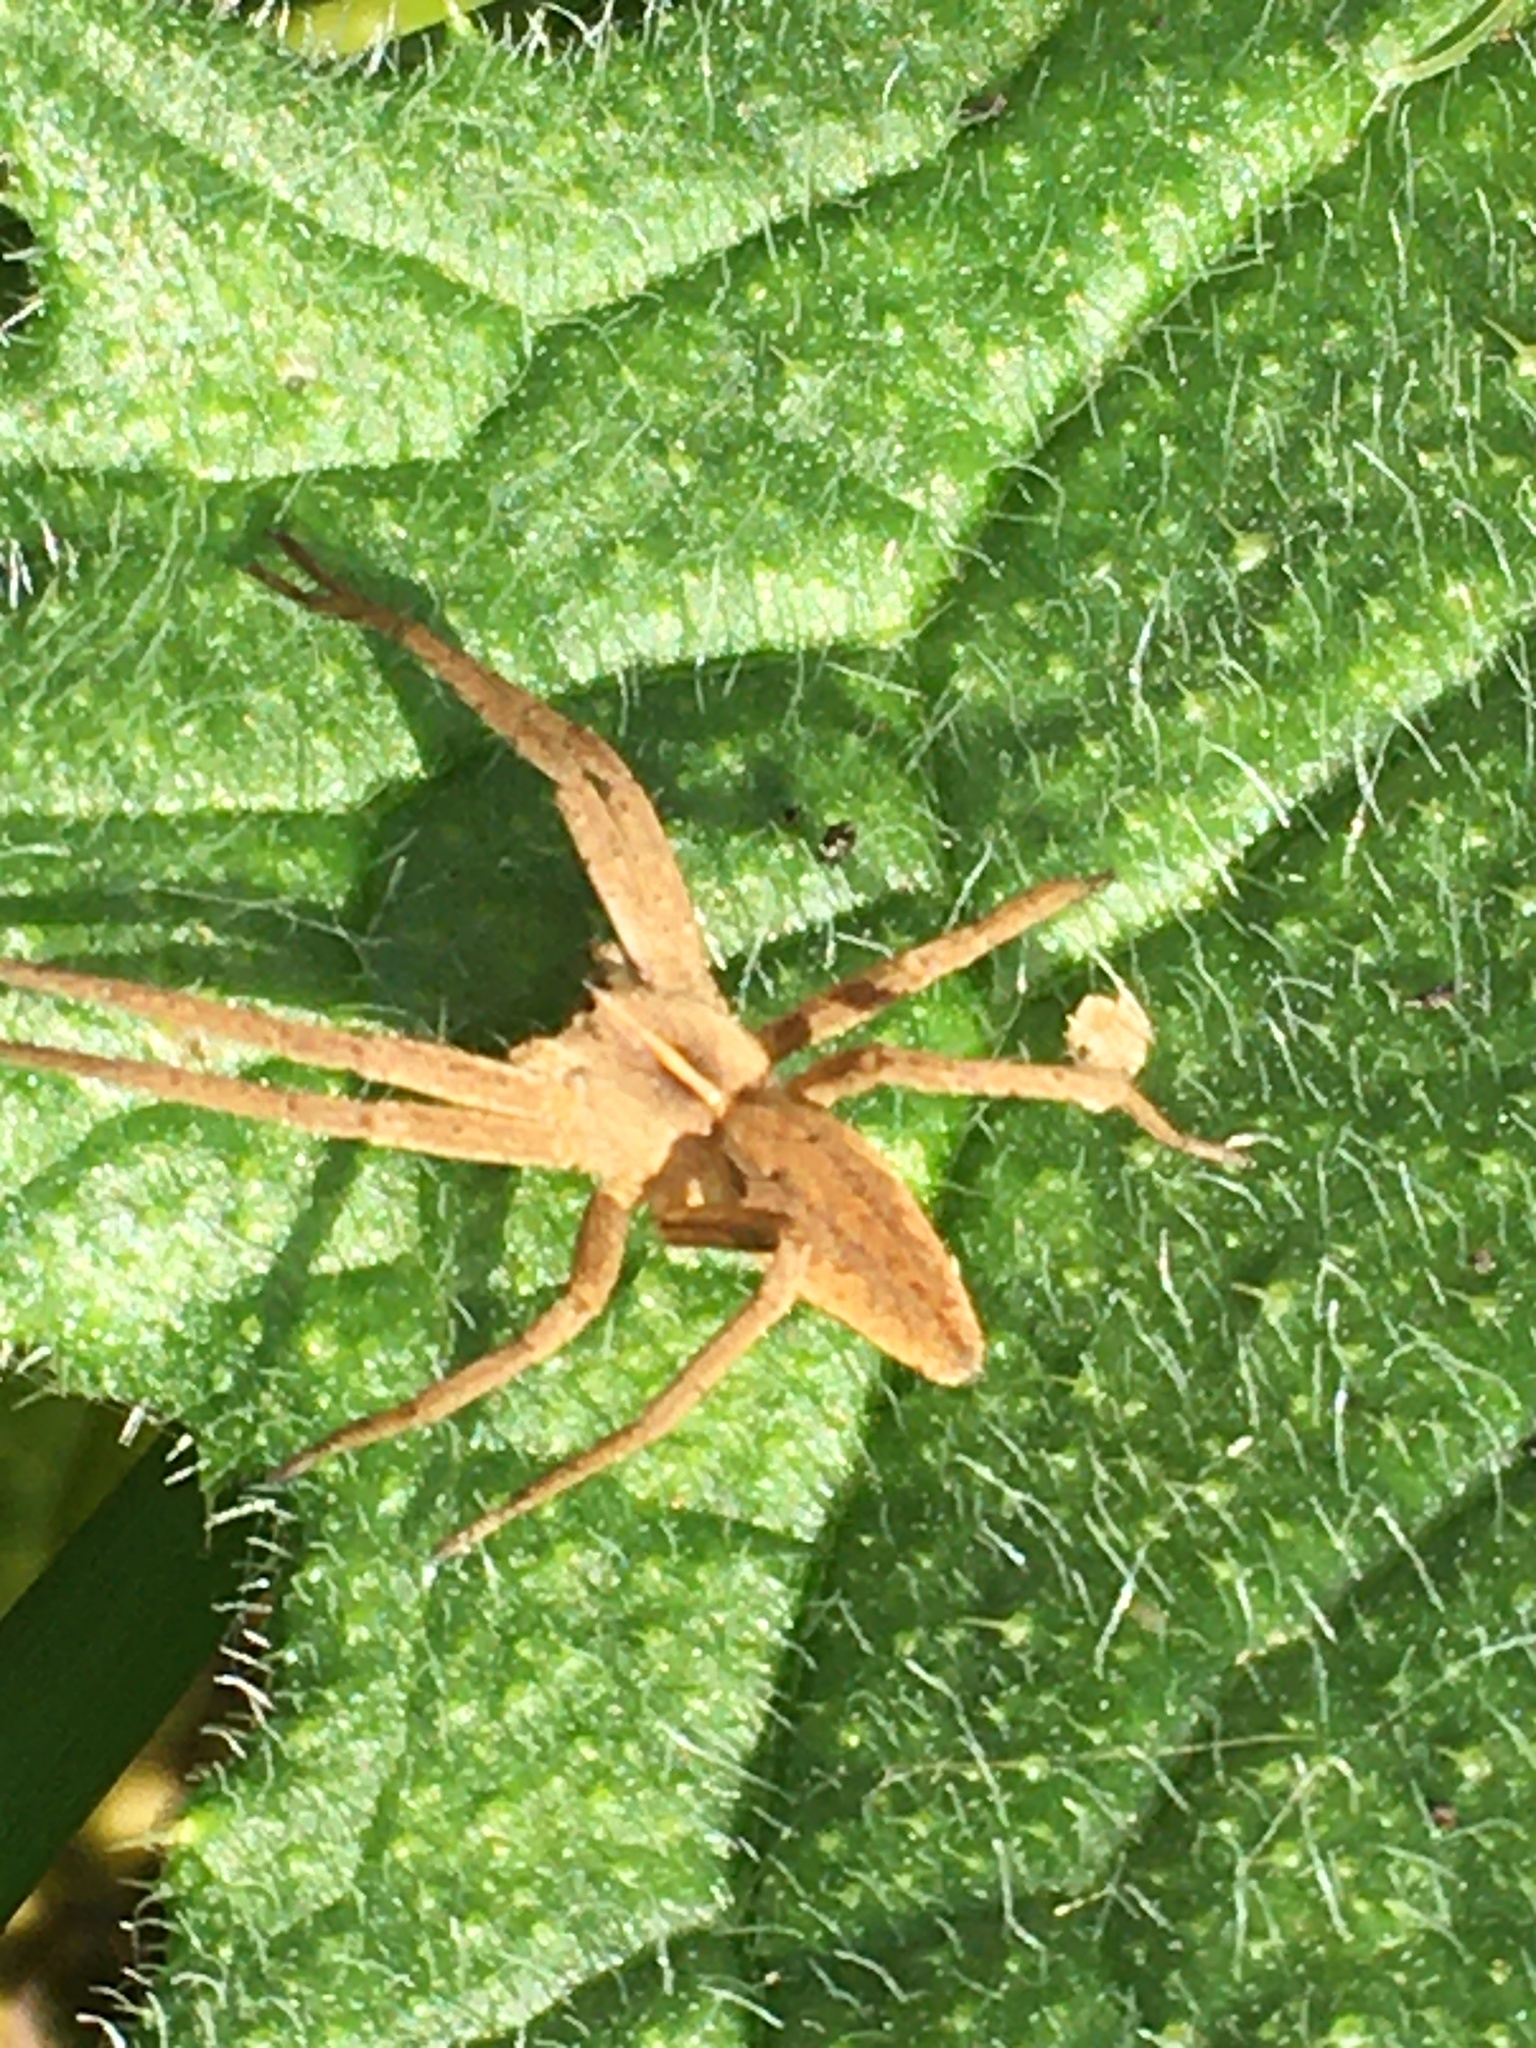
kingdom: Animalia
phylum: Arthropoda
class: Arachnida
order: Araneae
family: Pisauridae
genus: Pisaura
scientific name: Pisaura mirabilis
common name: Tent spider
